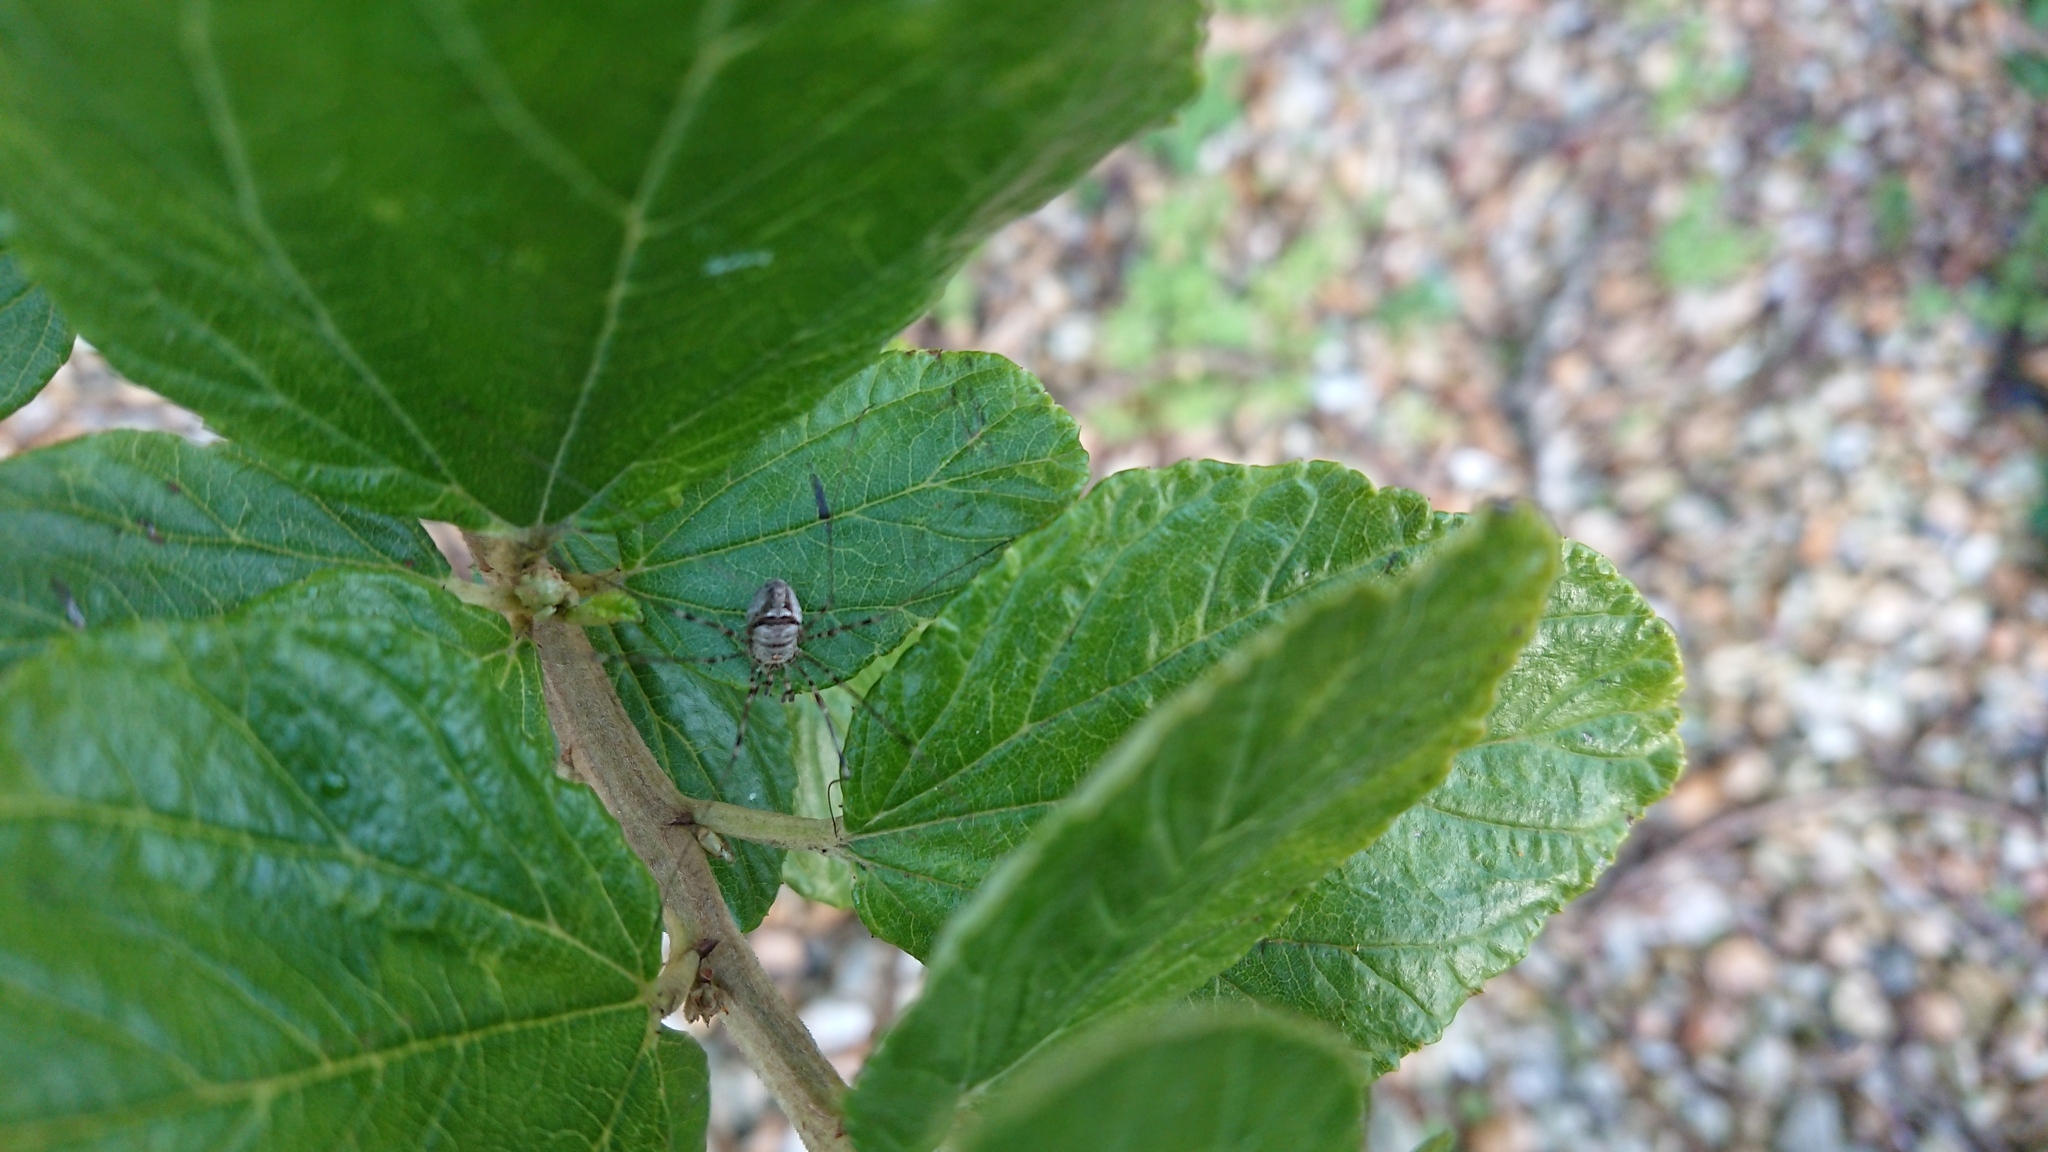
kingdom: Animalia
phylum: Arthropoda
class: Arachnida
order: Opiliones
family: Phalangiidae
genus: Dicranopalpus
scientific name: Dicranopalpus
